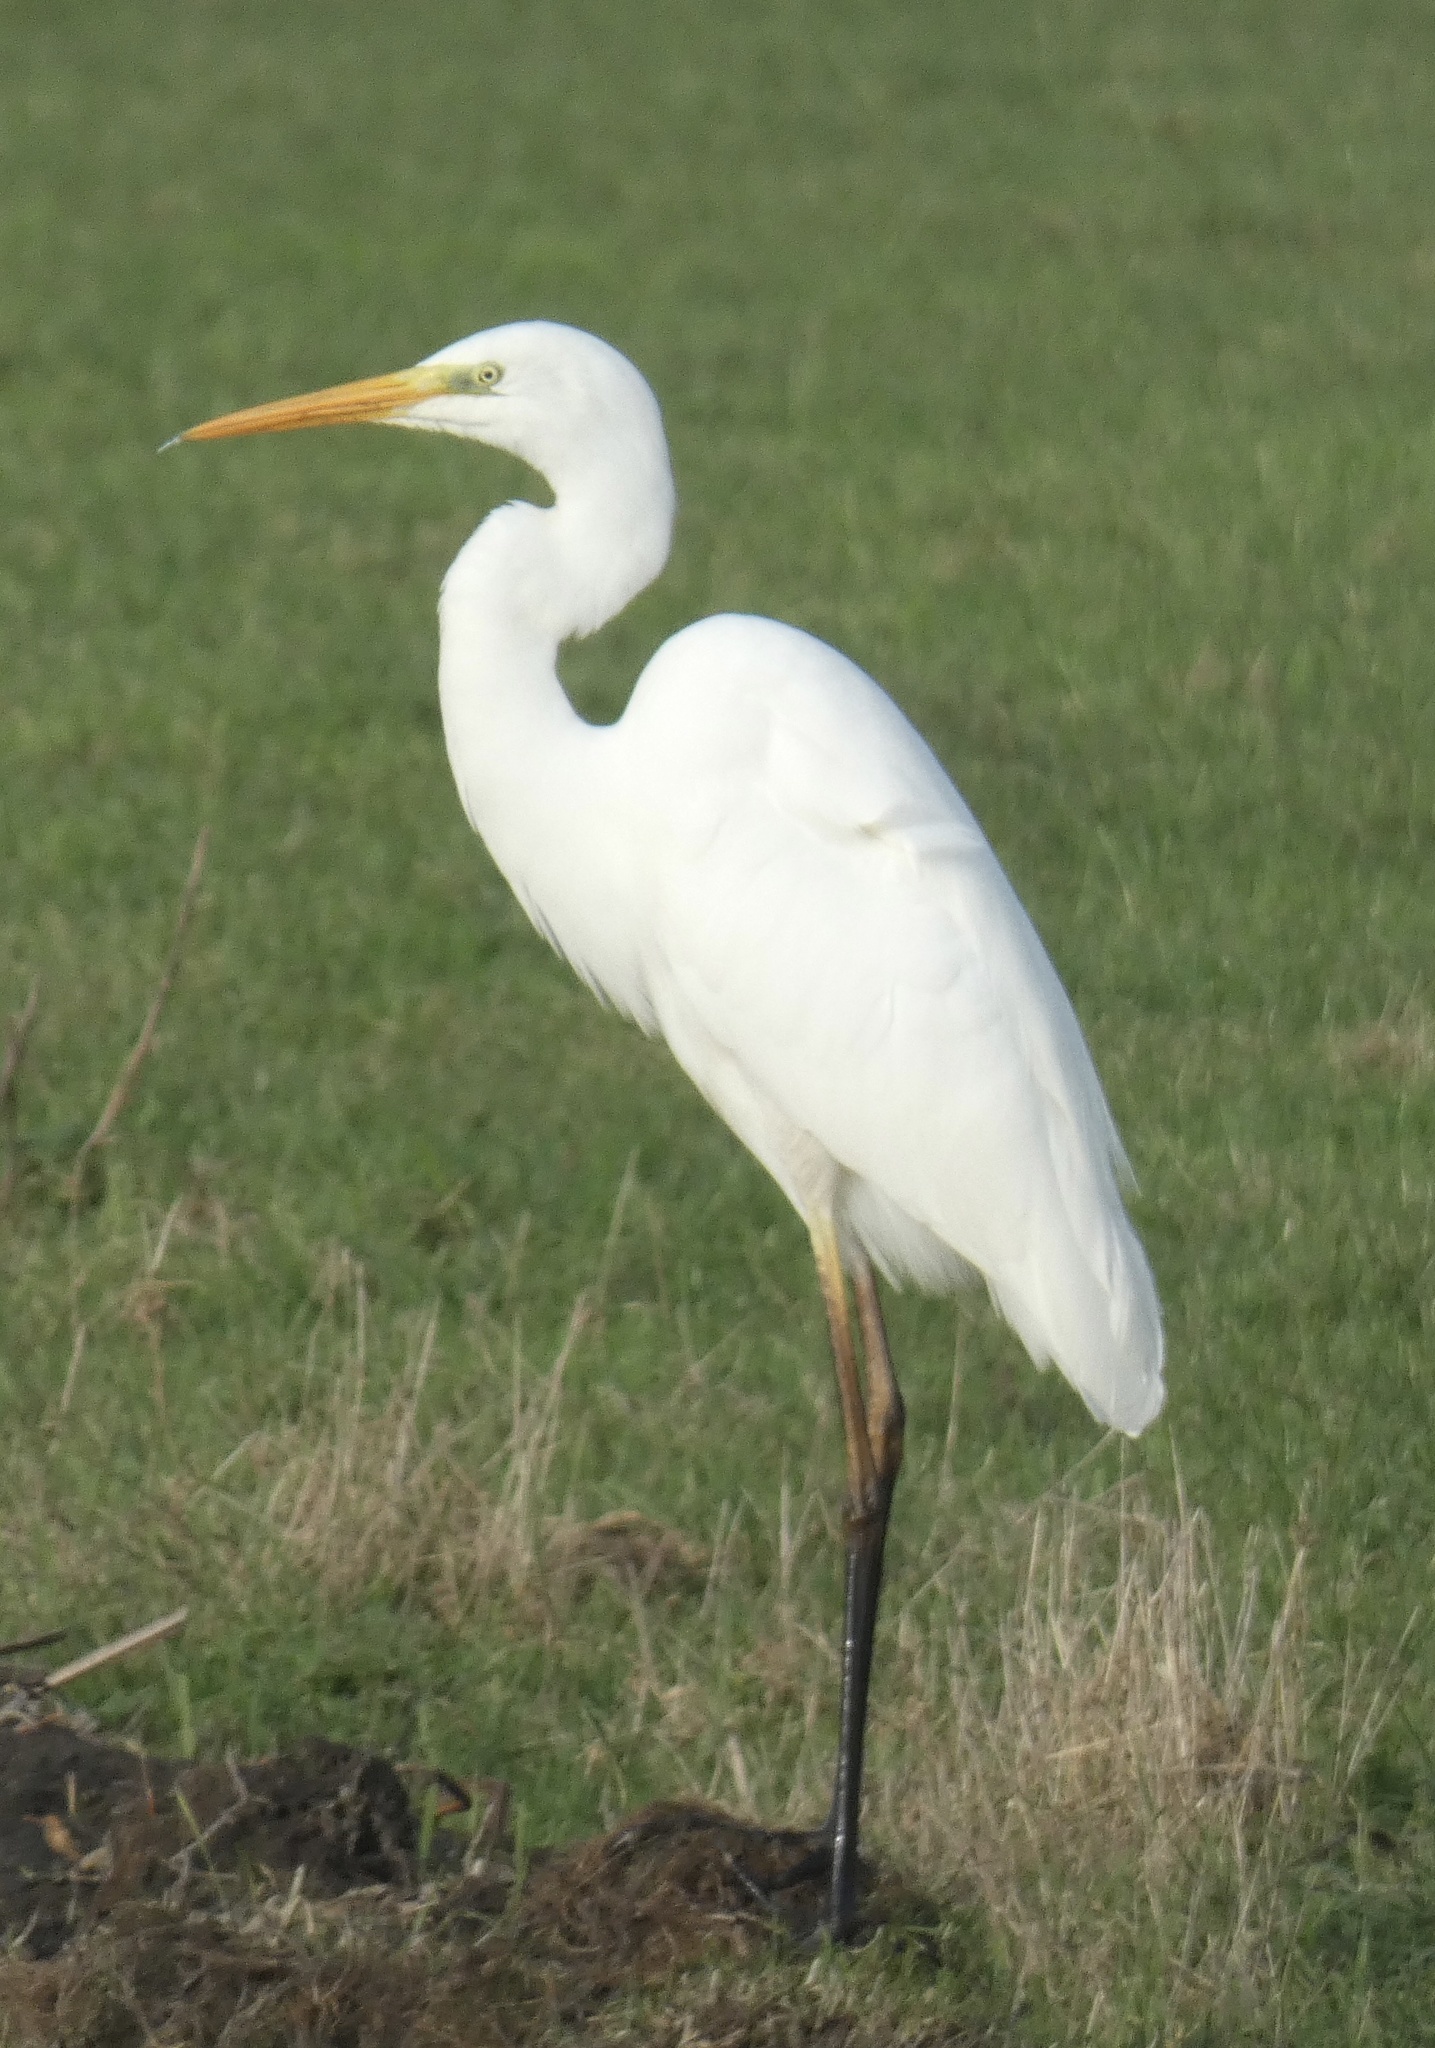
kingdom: Animalia
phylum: Chordata
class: Aves
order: Pelecaniformes
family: Ardeidae
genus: Ardea
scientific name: Ardea alba
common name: Great egret
